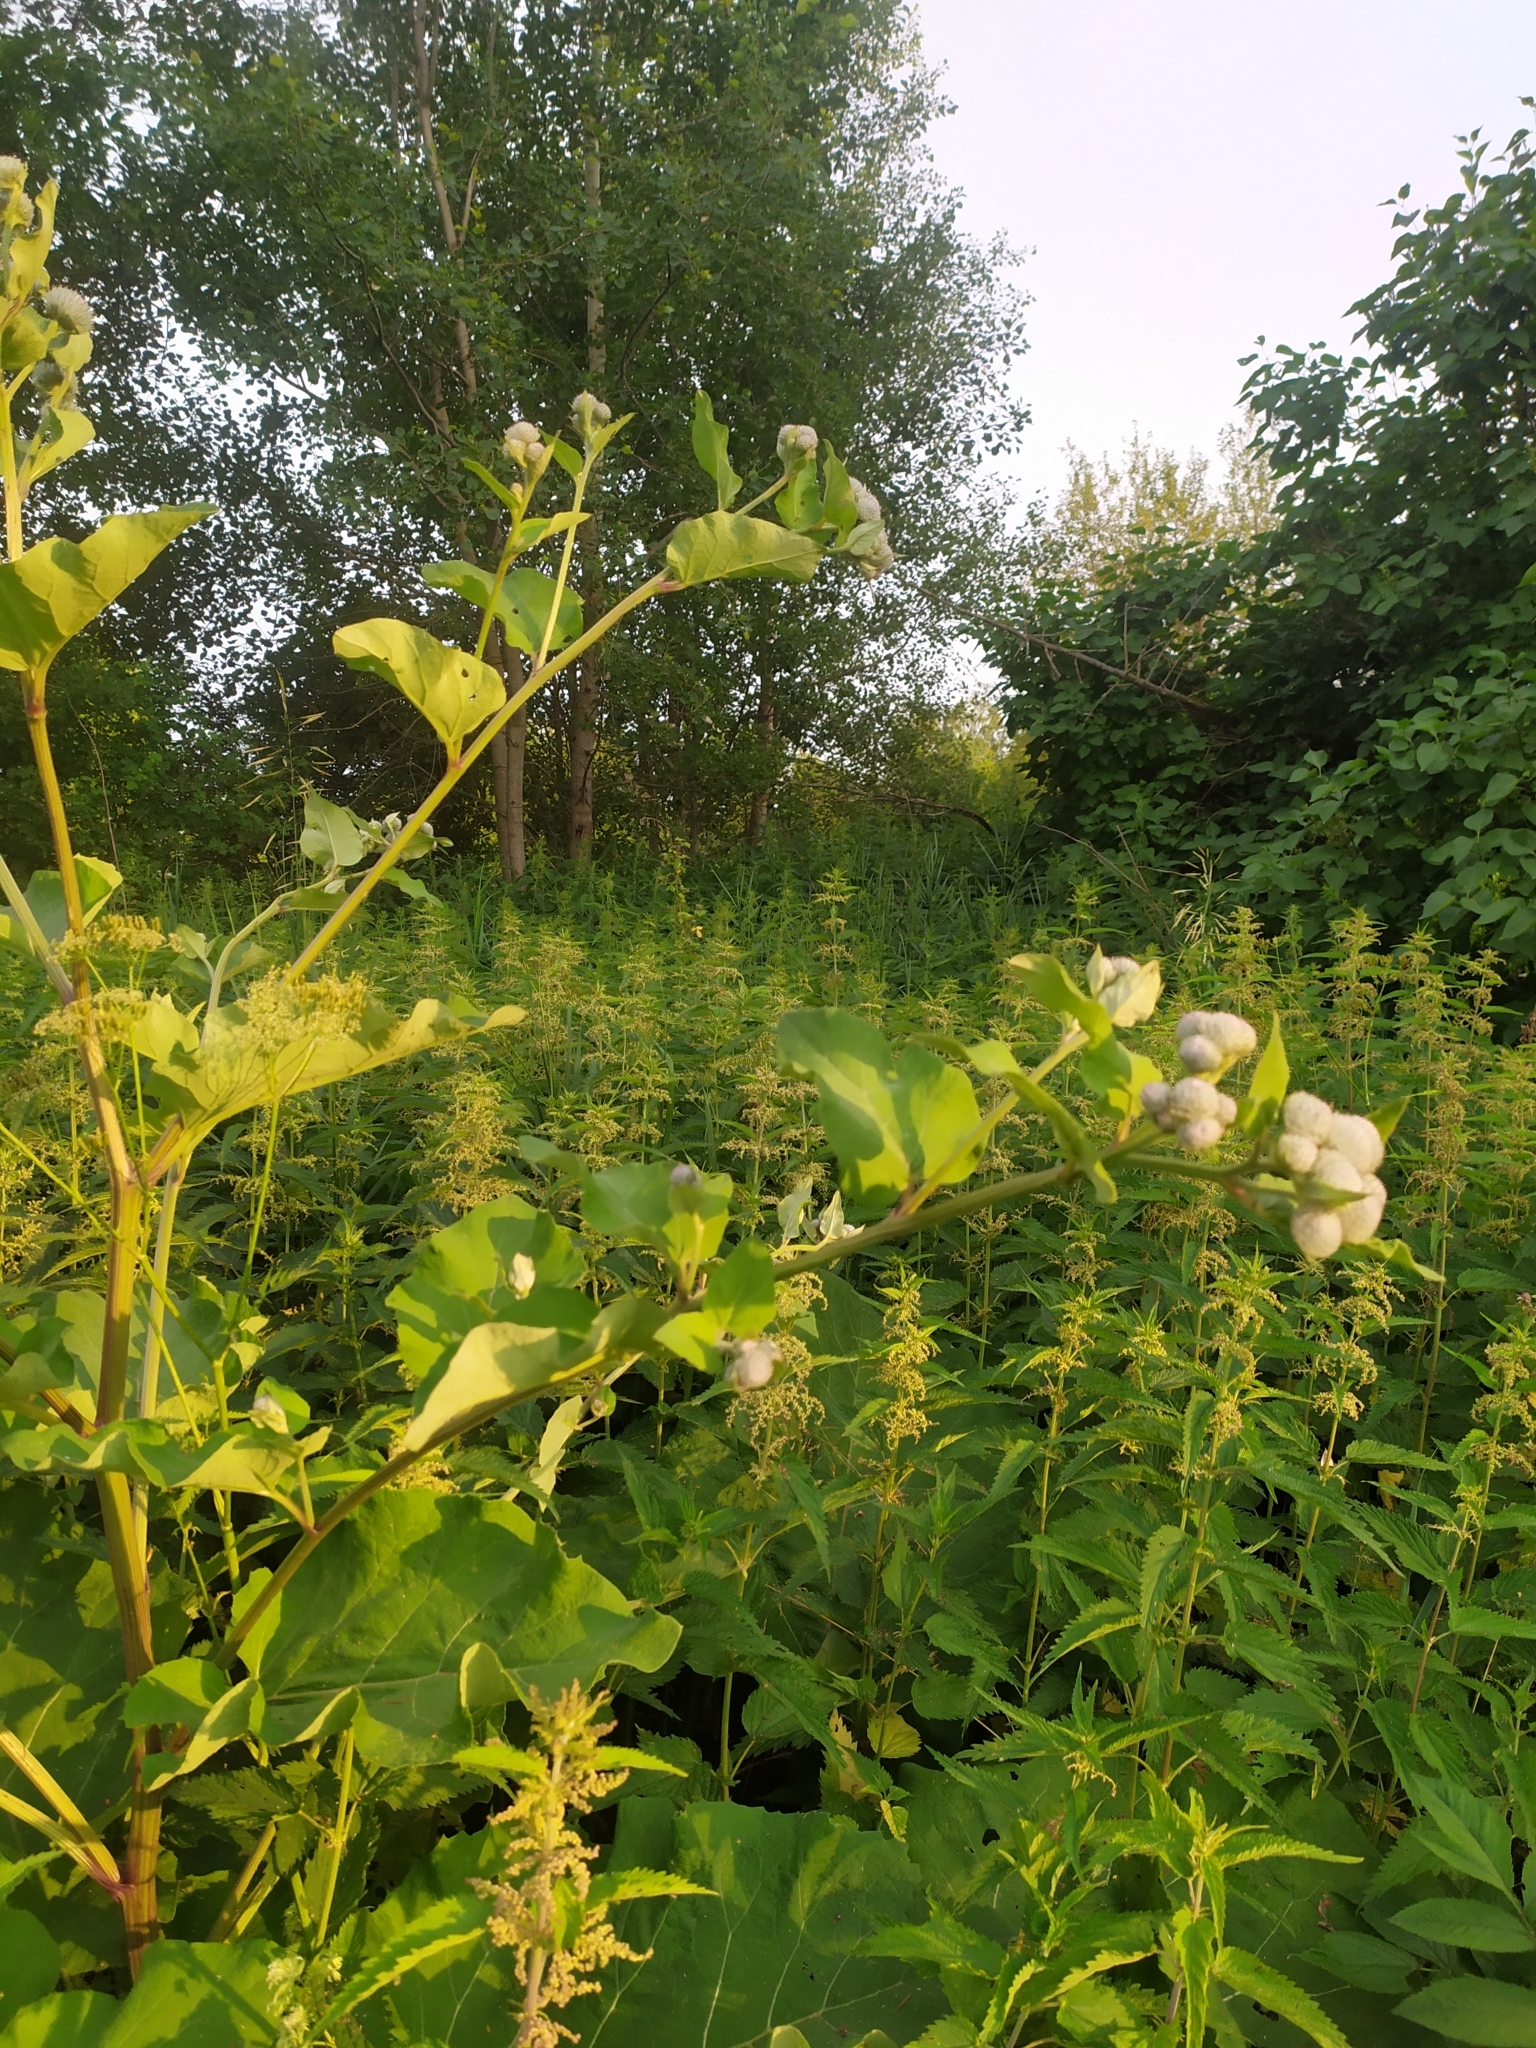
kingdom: Plantae
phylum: Tracheophyta
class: Magnoliopsida
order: Asterales
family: Asteraceae
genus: Arctium
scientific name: Arctium tomentosum
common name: Woolly burdock
